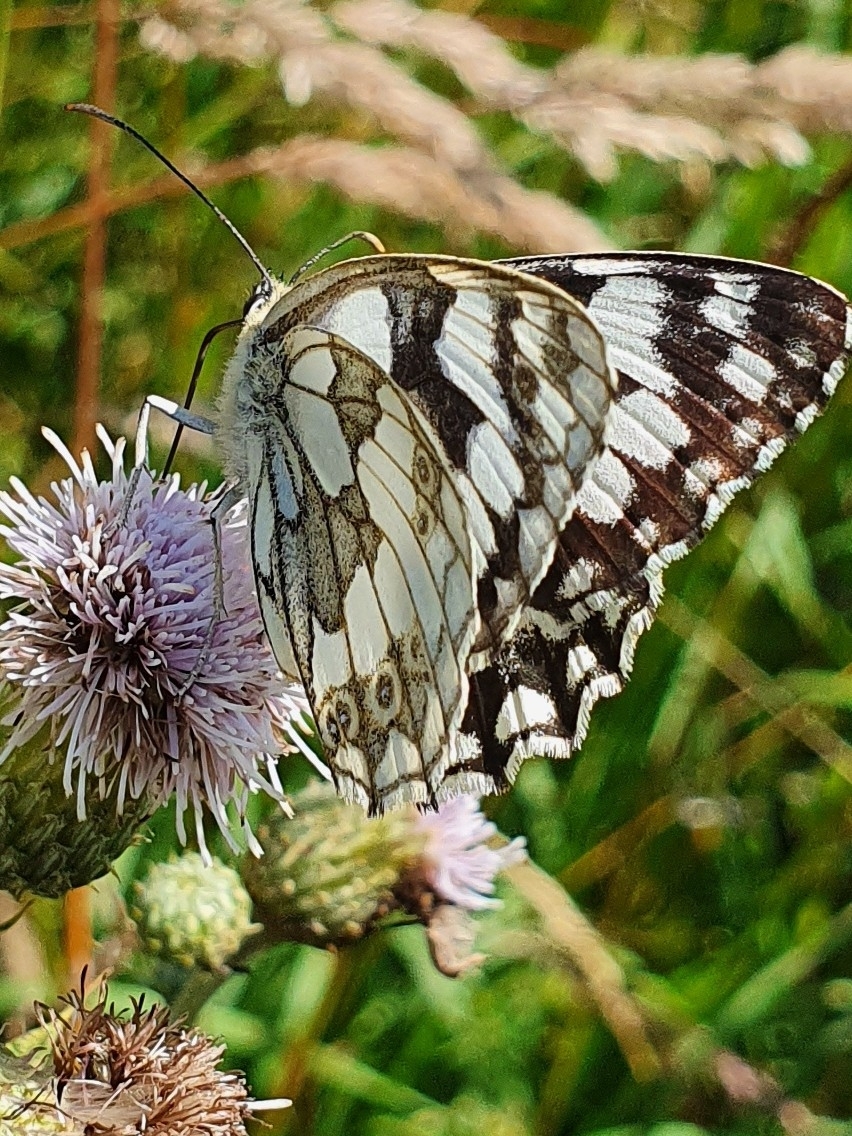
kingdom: Animalia
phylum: Arthropoda
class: Insecta
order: Lepidoptera
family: Nymphalidae
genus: Melanargia
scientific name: Melanargia galathea
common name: Marbled white
